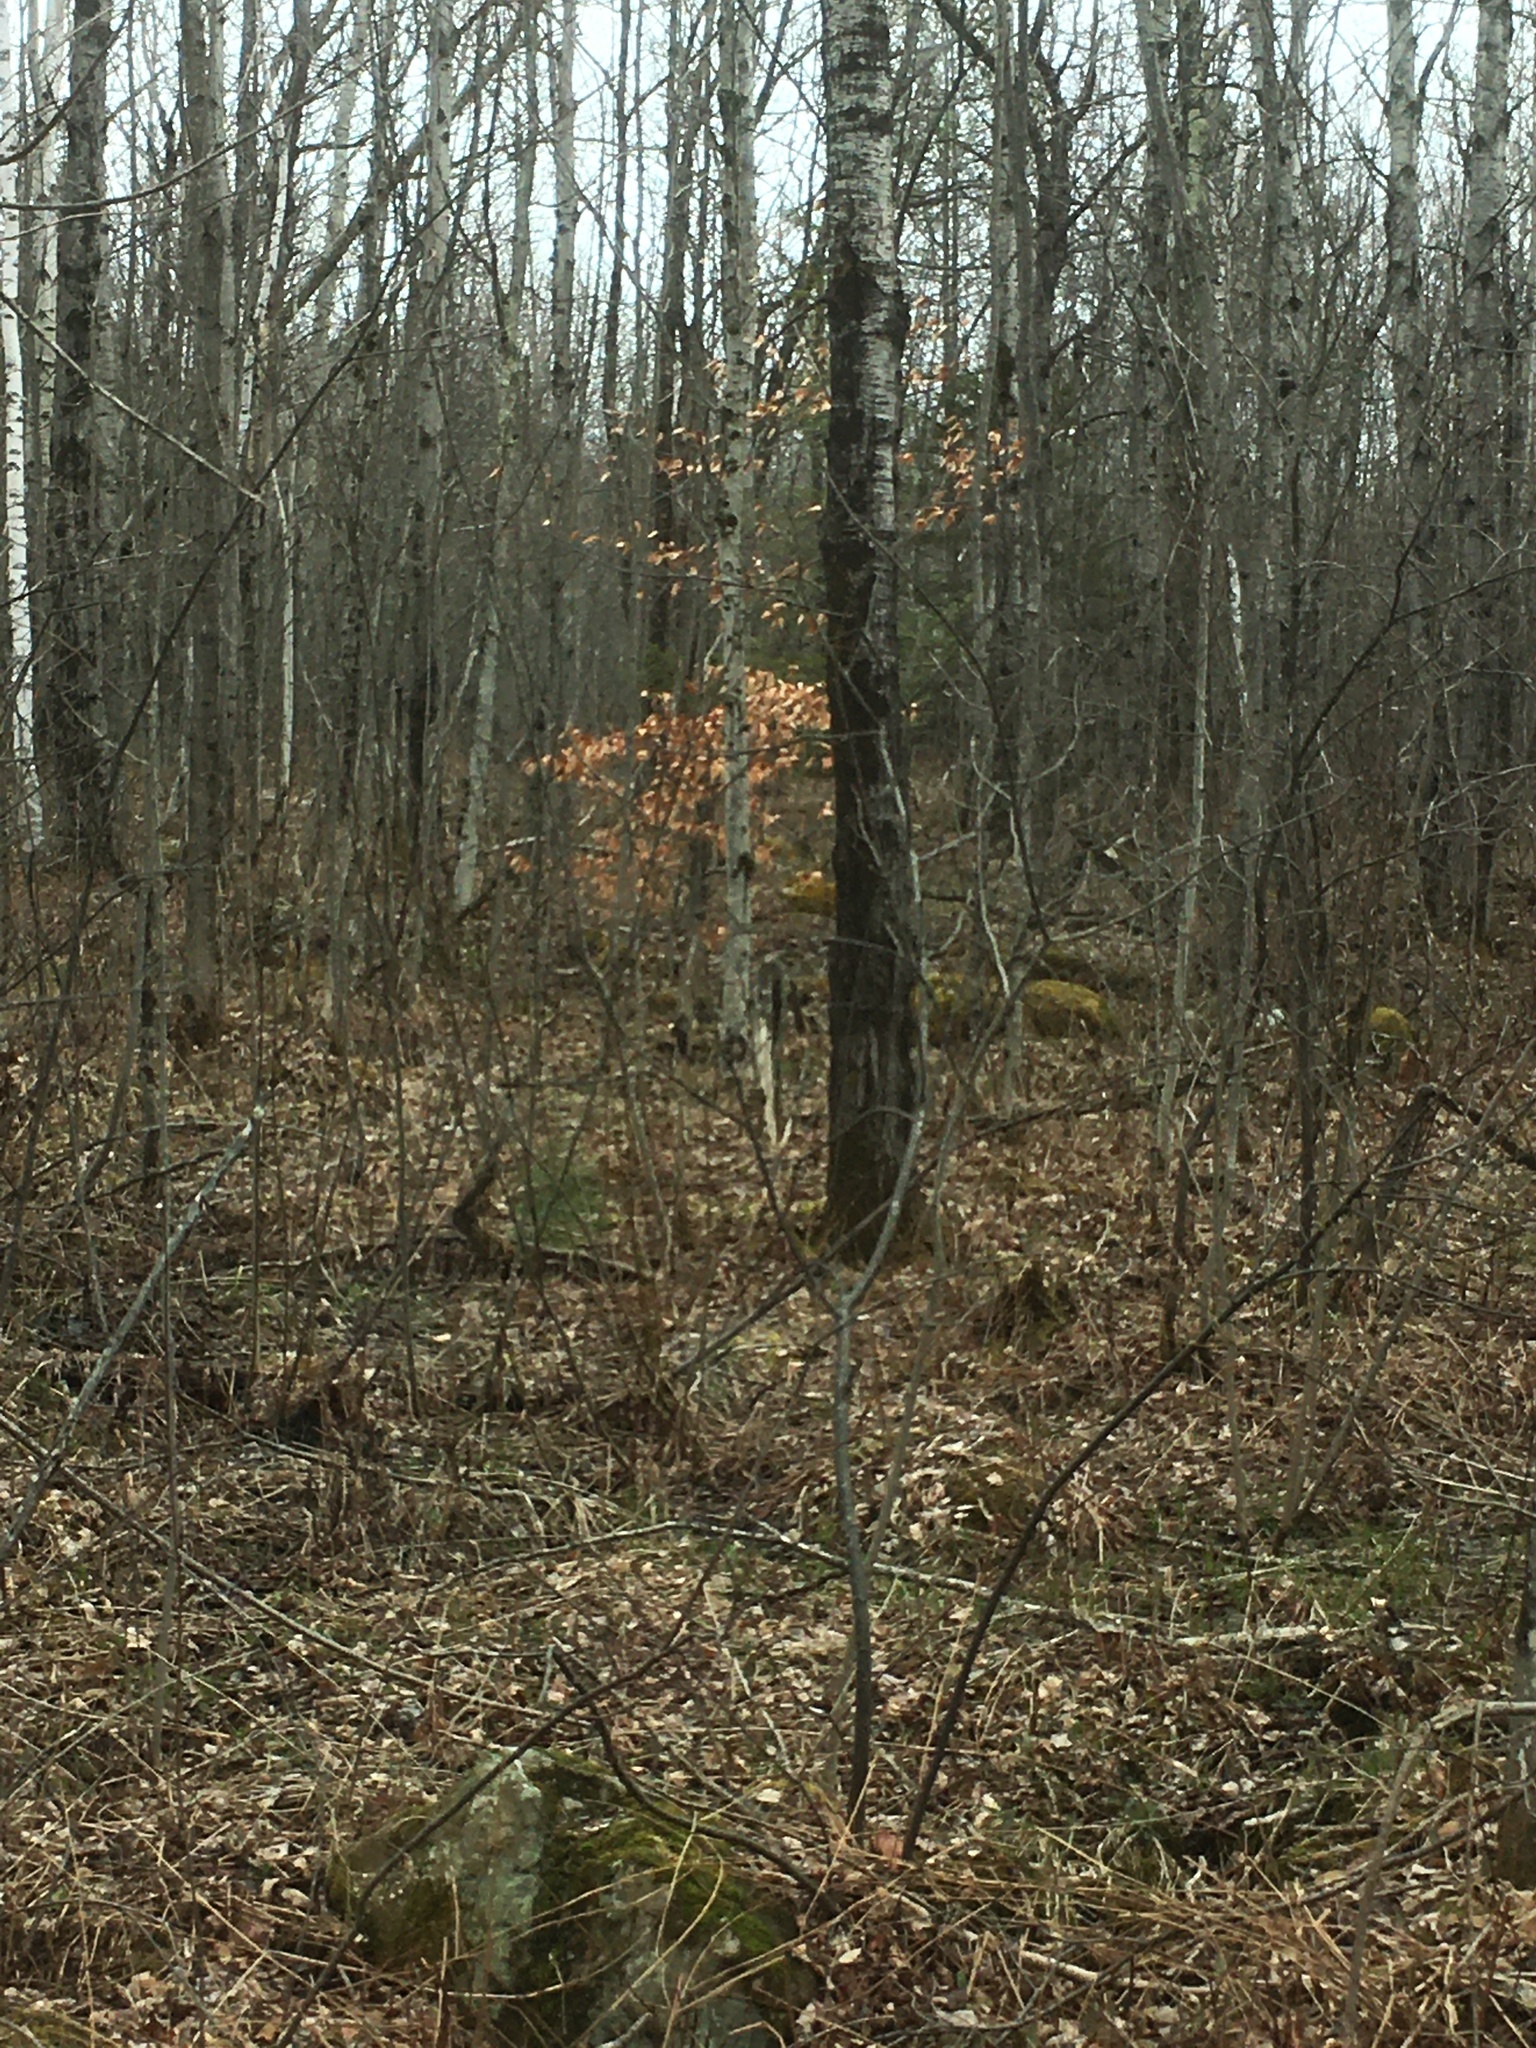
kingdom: Plantae
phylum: Tracheophyta
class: Magnoliopsida
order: Fagales
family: Fagaceae
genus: Fagus
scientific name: Fagus grandifolia
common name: American beech
